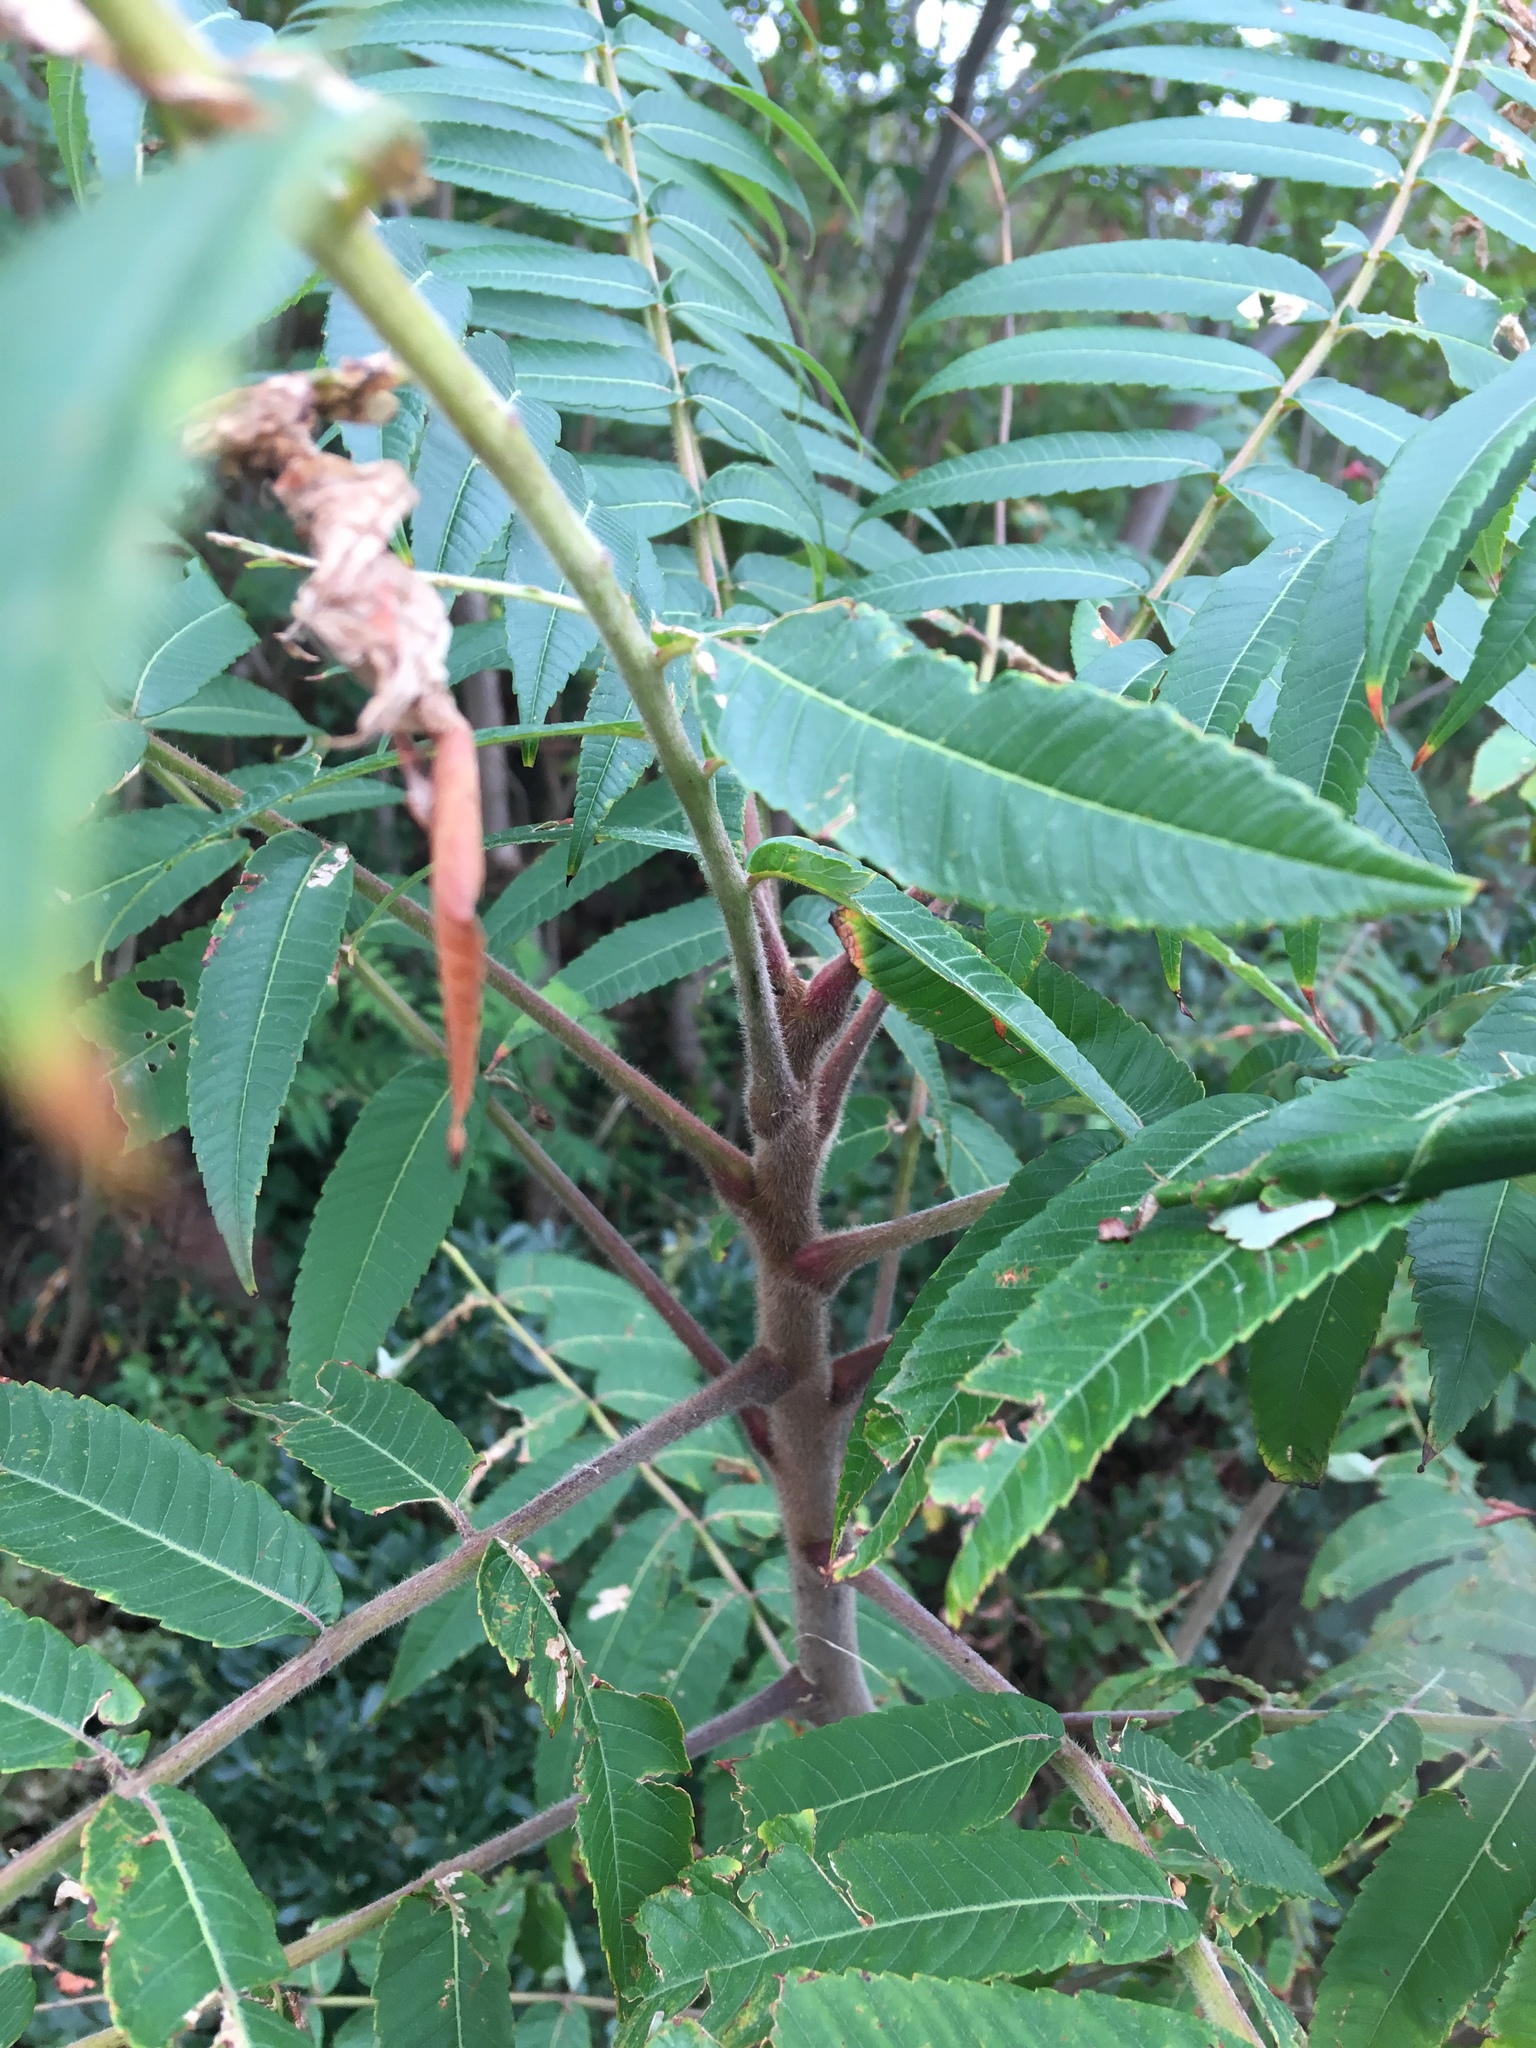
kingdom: Plantae
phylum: Tracheophyta
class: Magnoliopsida
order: Sapindales
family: Anacardiaceae
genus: Rhus
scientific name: Rhus typhina
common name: Staghorn sumac
